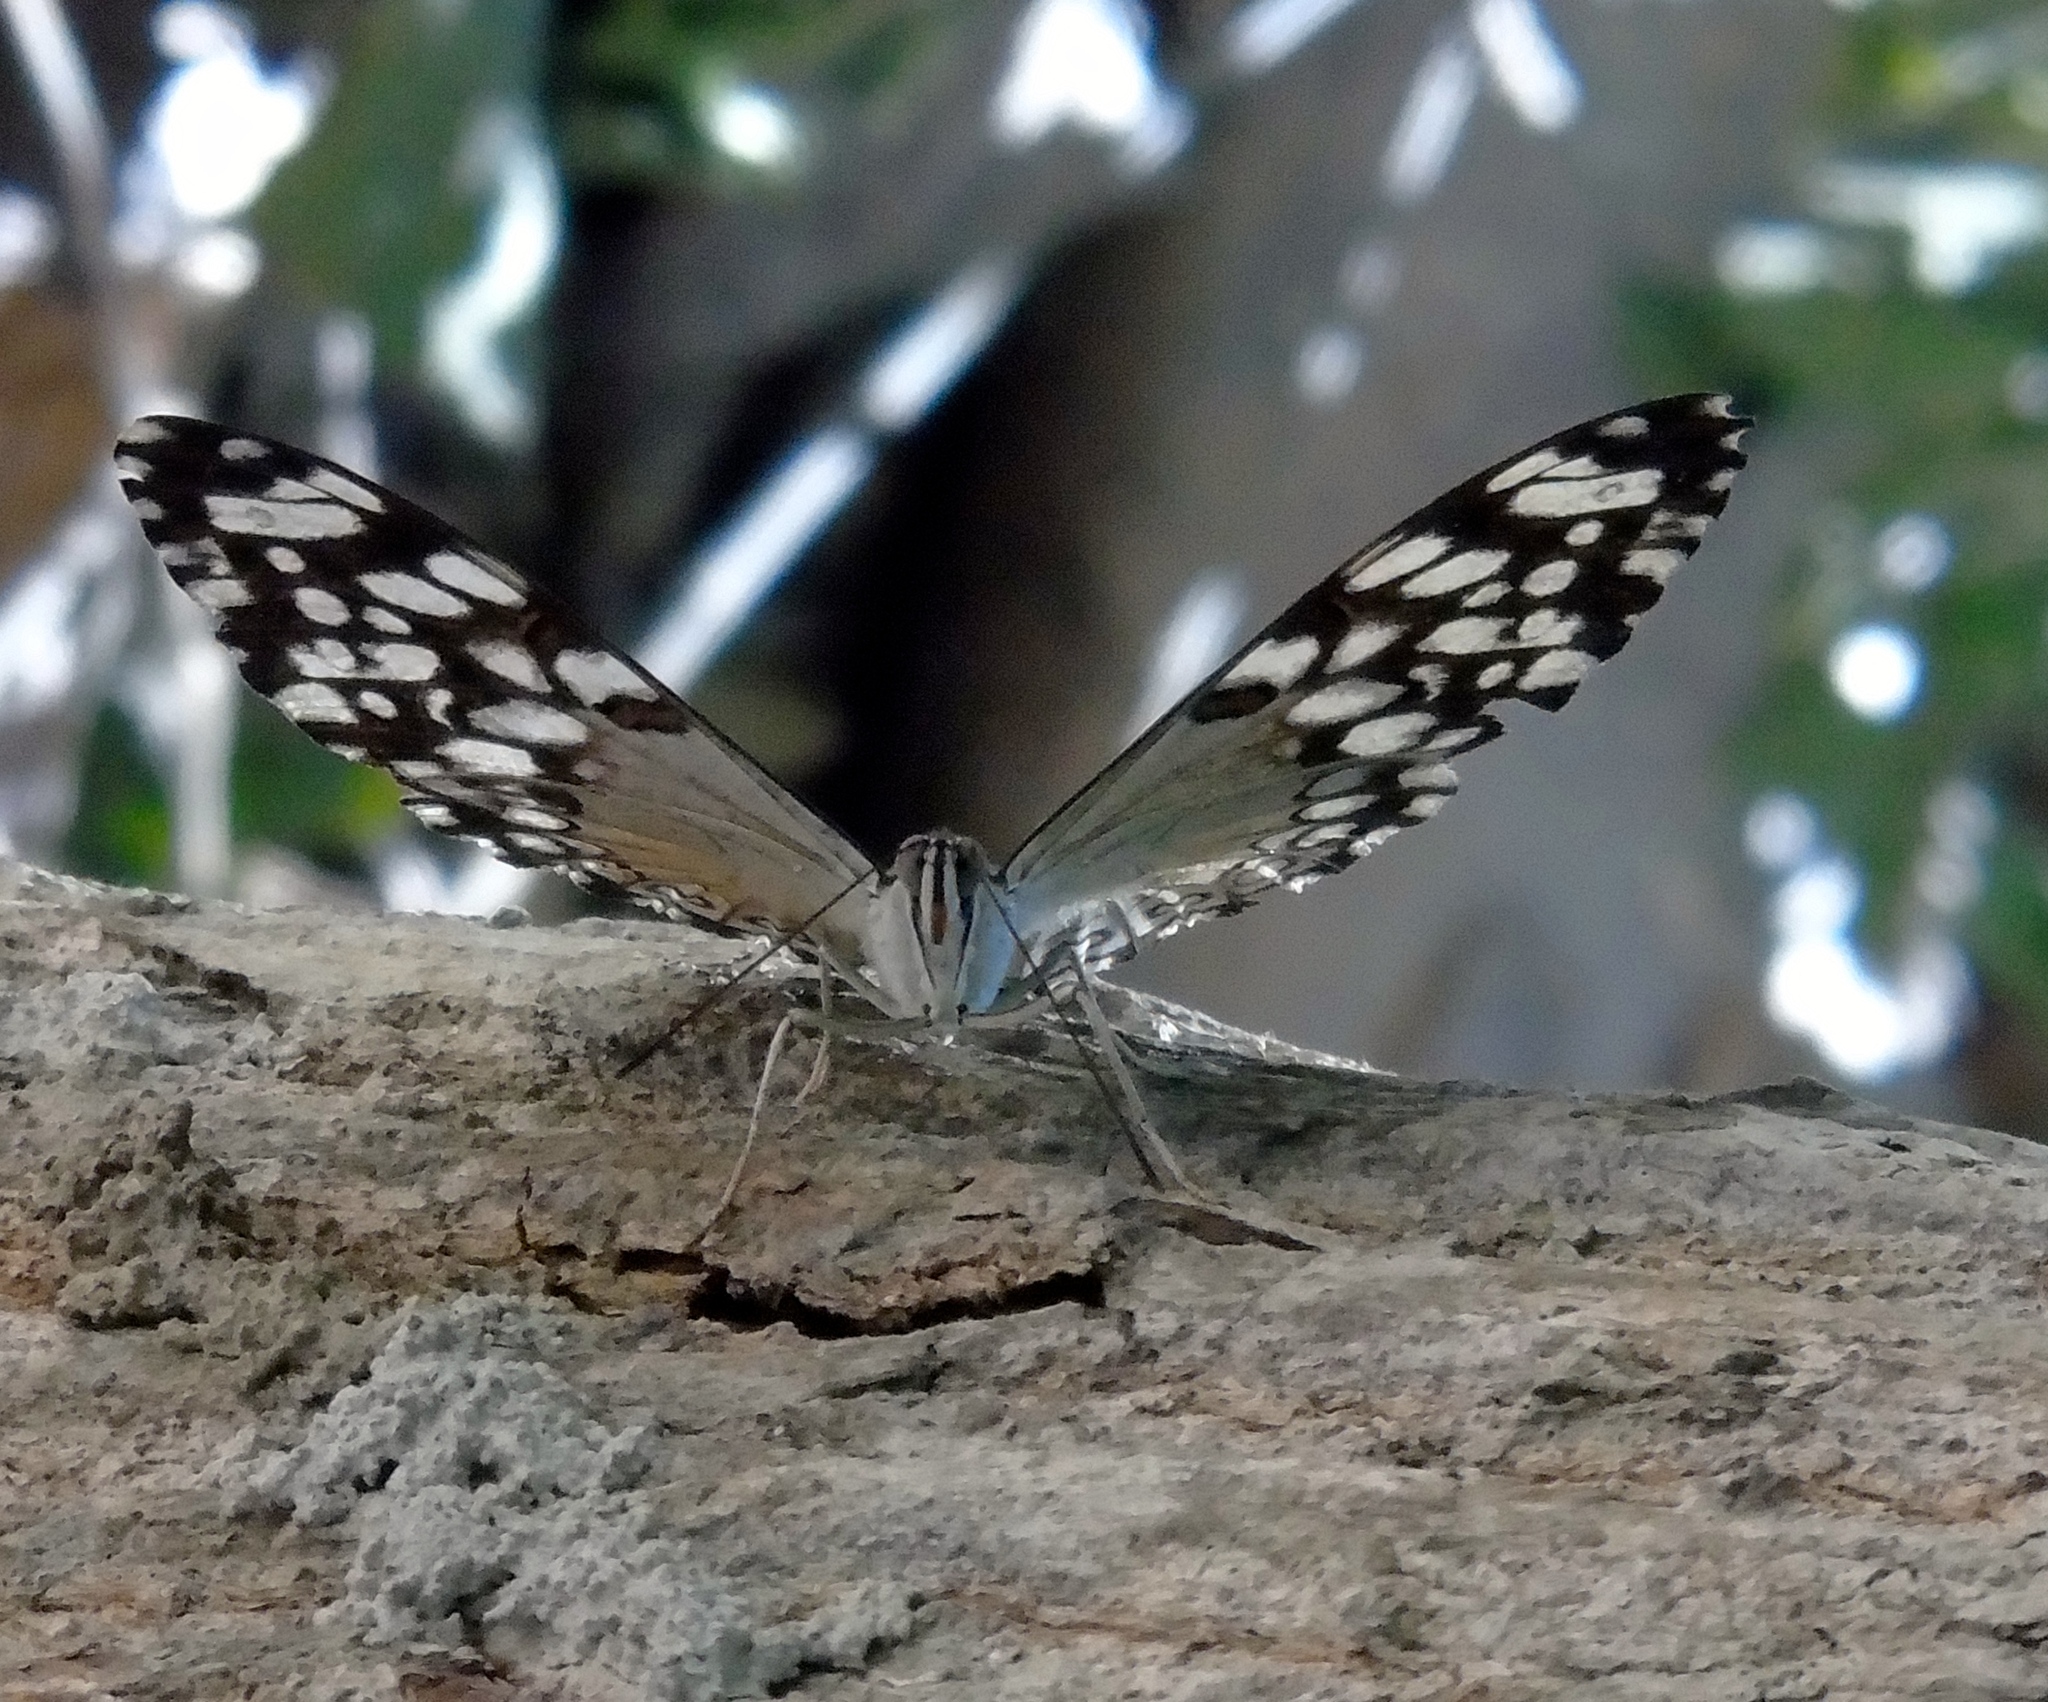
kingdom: Animalia
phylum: Arthropoda
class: Insecta
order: Lepidoptera
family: Nymphalidae
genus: Hamadryas
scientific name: Hamadryas guatemalena
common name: Guatemalan cracker
